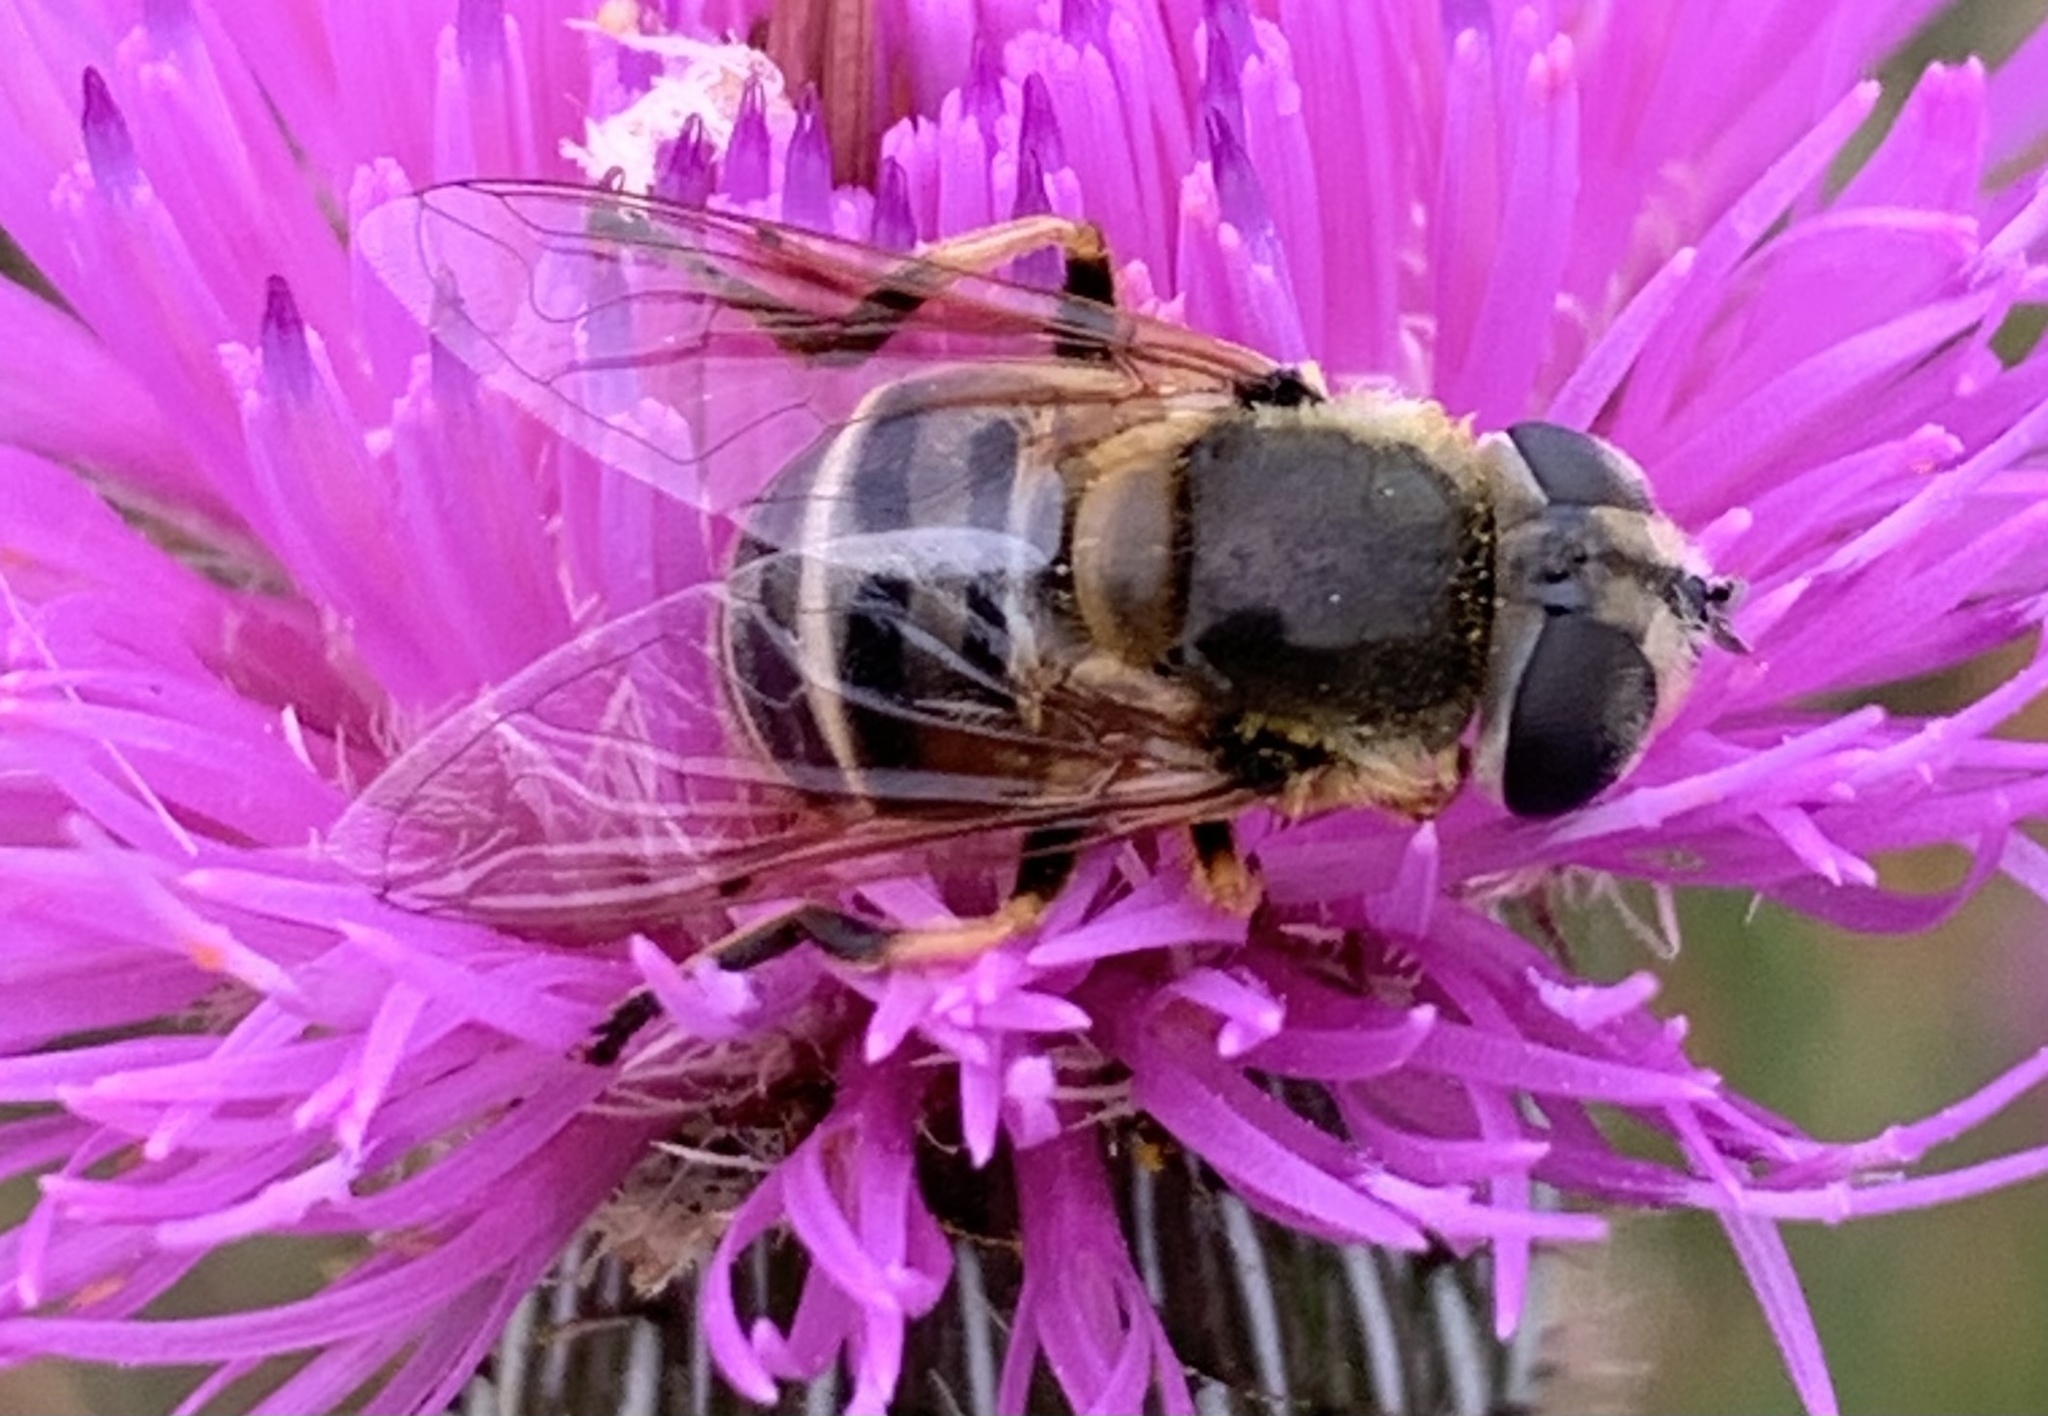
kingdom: Animalia
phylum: Arthropoda
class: Insecta
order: Diptera
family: Syrphidae
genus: Eristalis
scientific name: Eristalis stipator
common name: Yellow-shouldered drone fly
